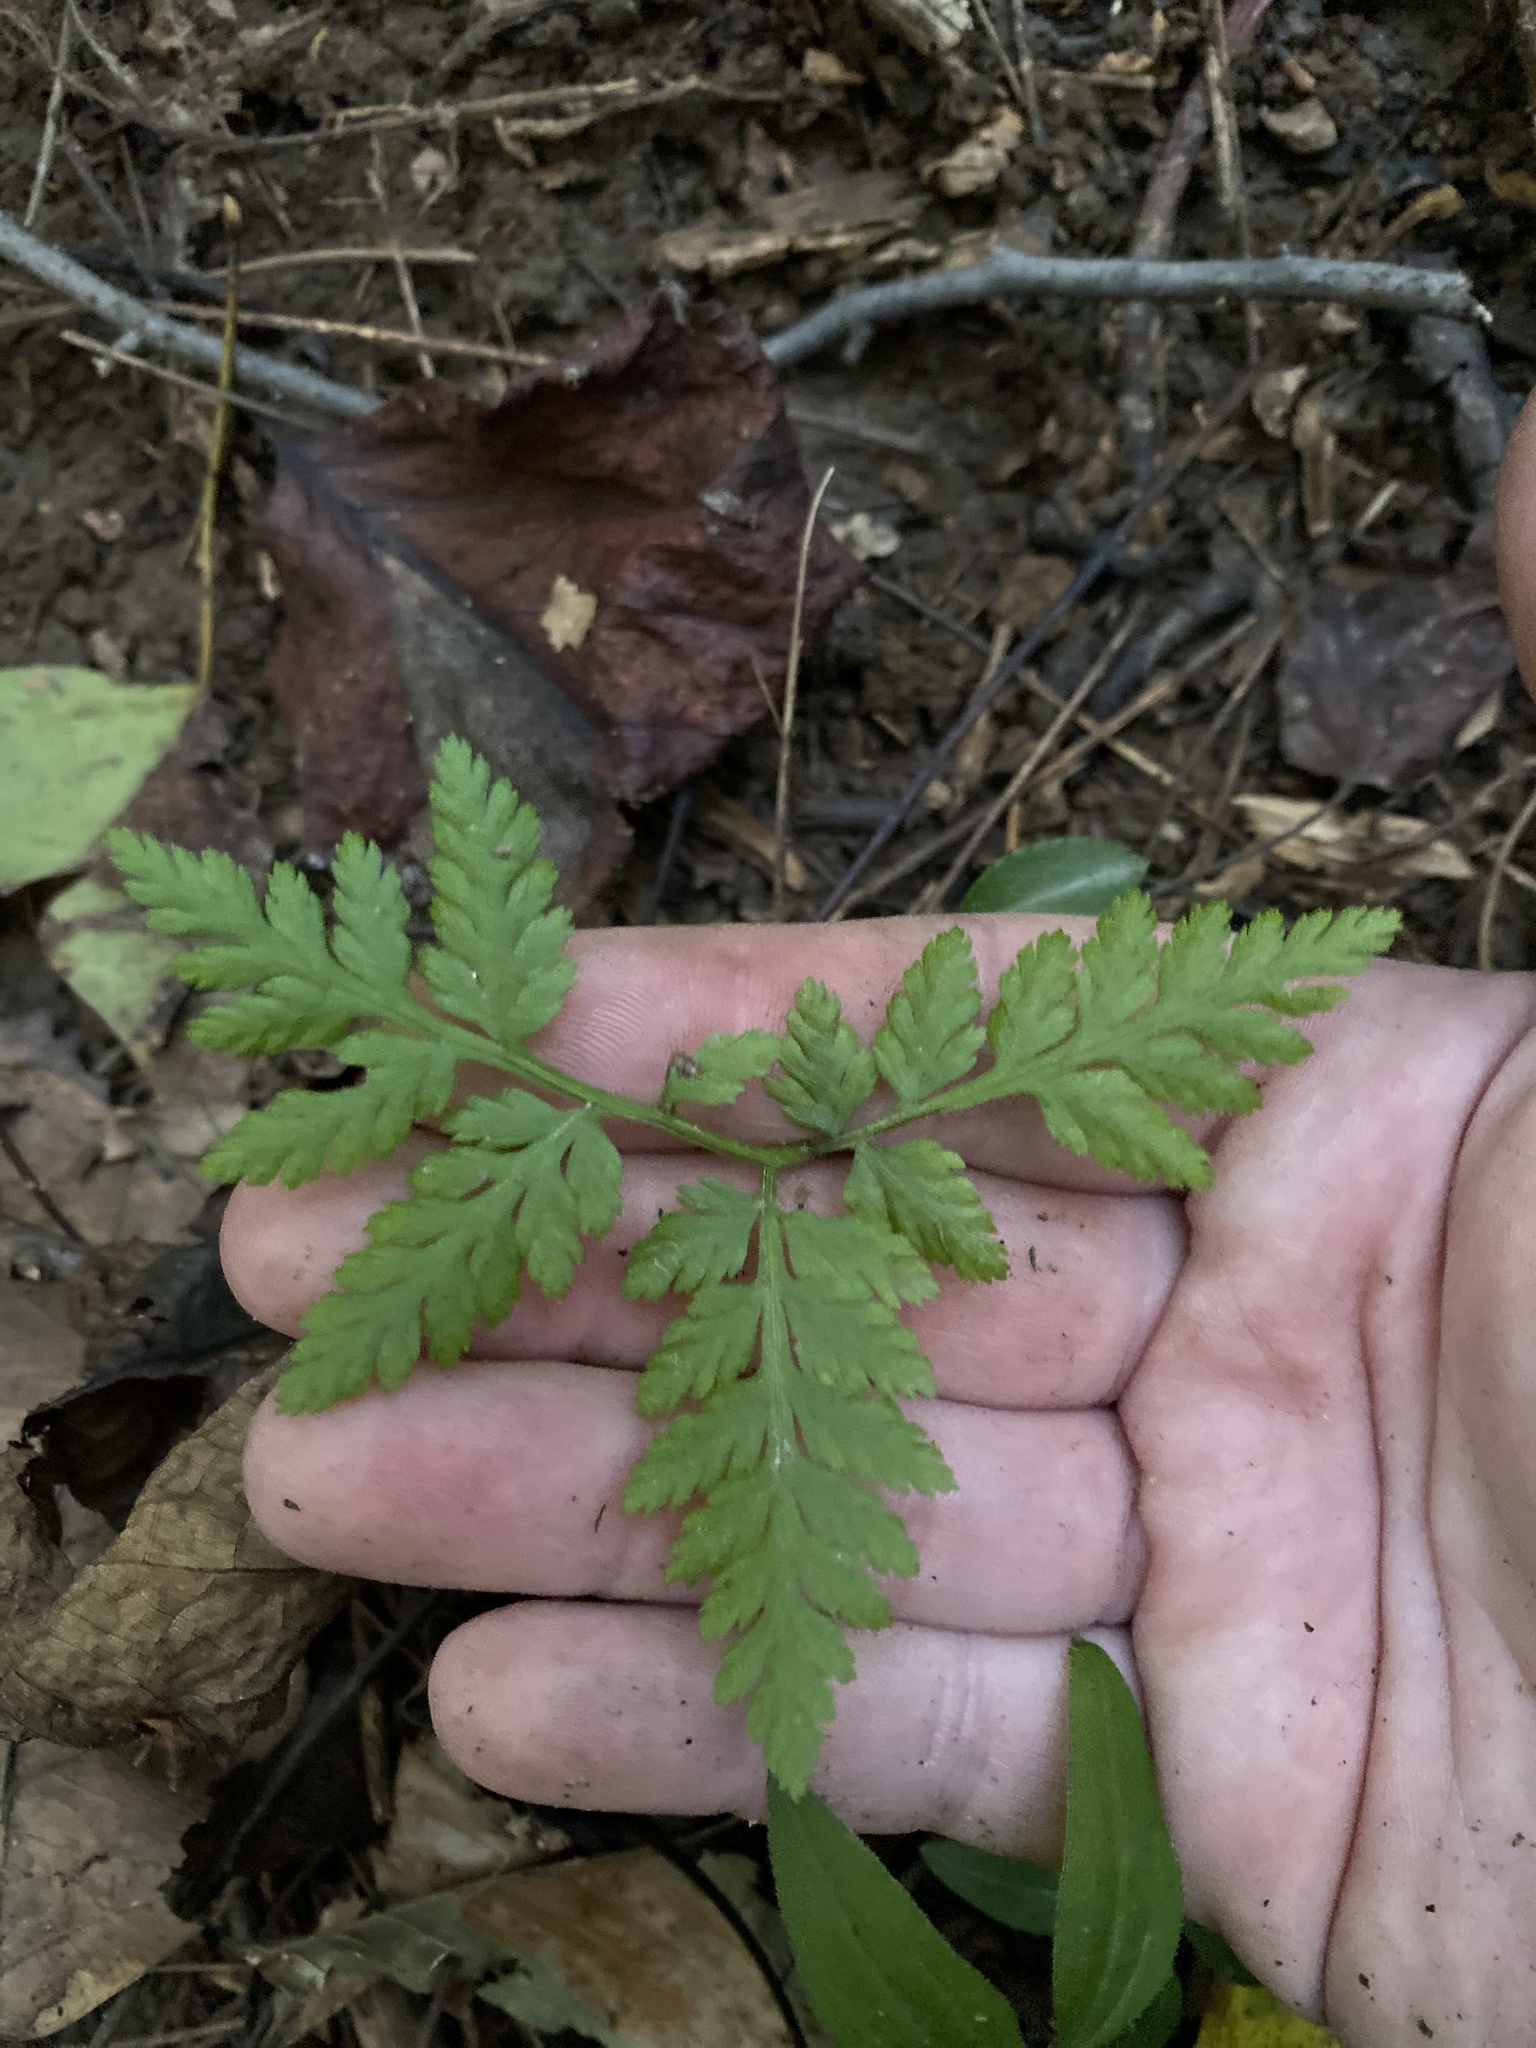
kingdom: Plantae
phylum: Tracheophyta
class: Polypodiopsida
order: Ophioglossales
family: Ophioglossaceae
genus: Botrypus
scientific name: Botrypus virginianus
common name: Common grapefern
